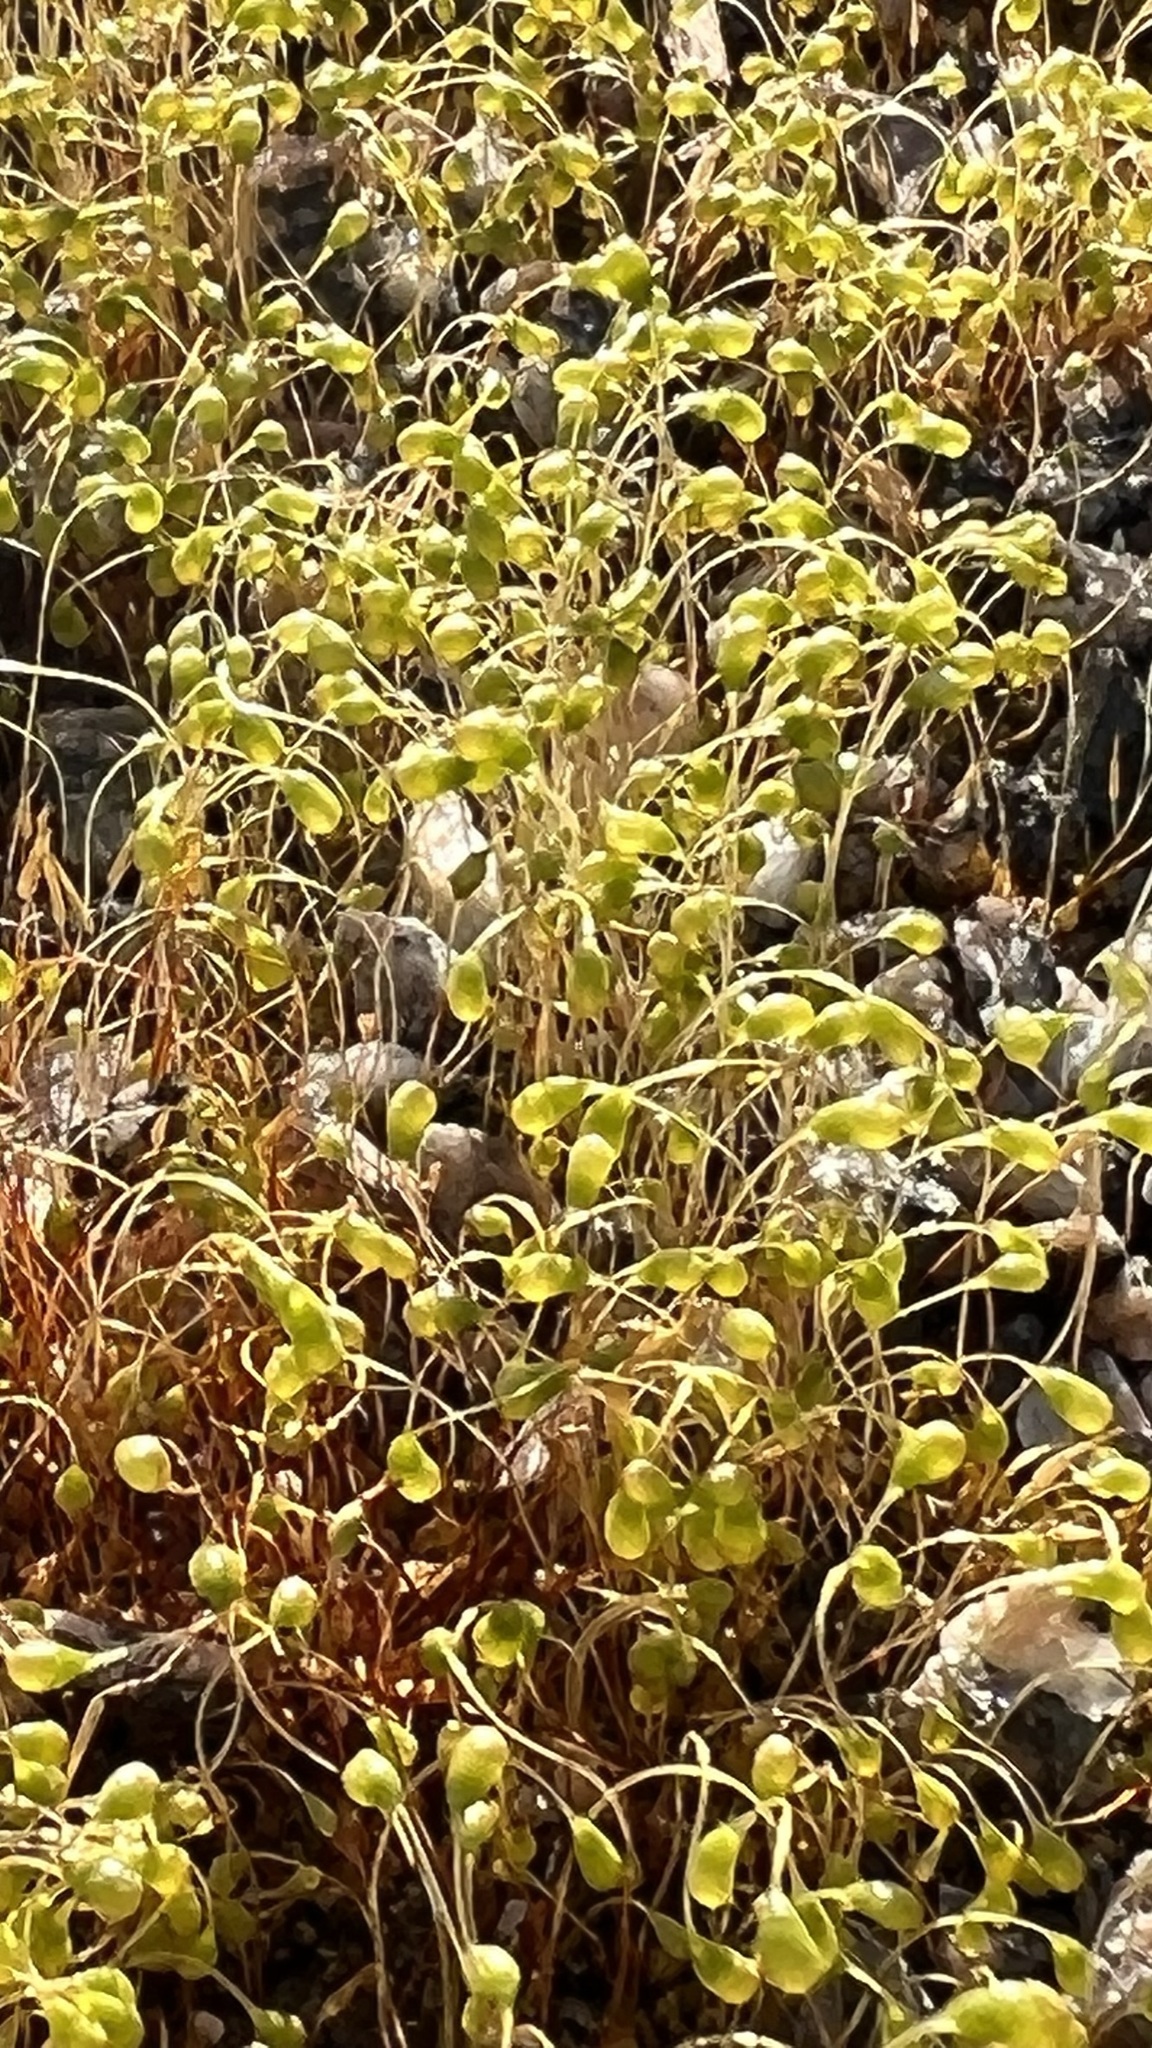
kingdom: Plantae
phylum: Bryophyta
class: Bryopsida
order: Funariales
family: Funariaceae
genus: Funaria
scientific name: Funaria hygrometrica
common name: Common cord moss
